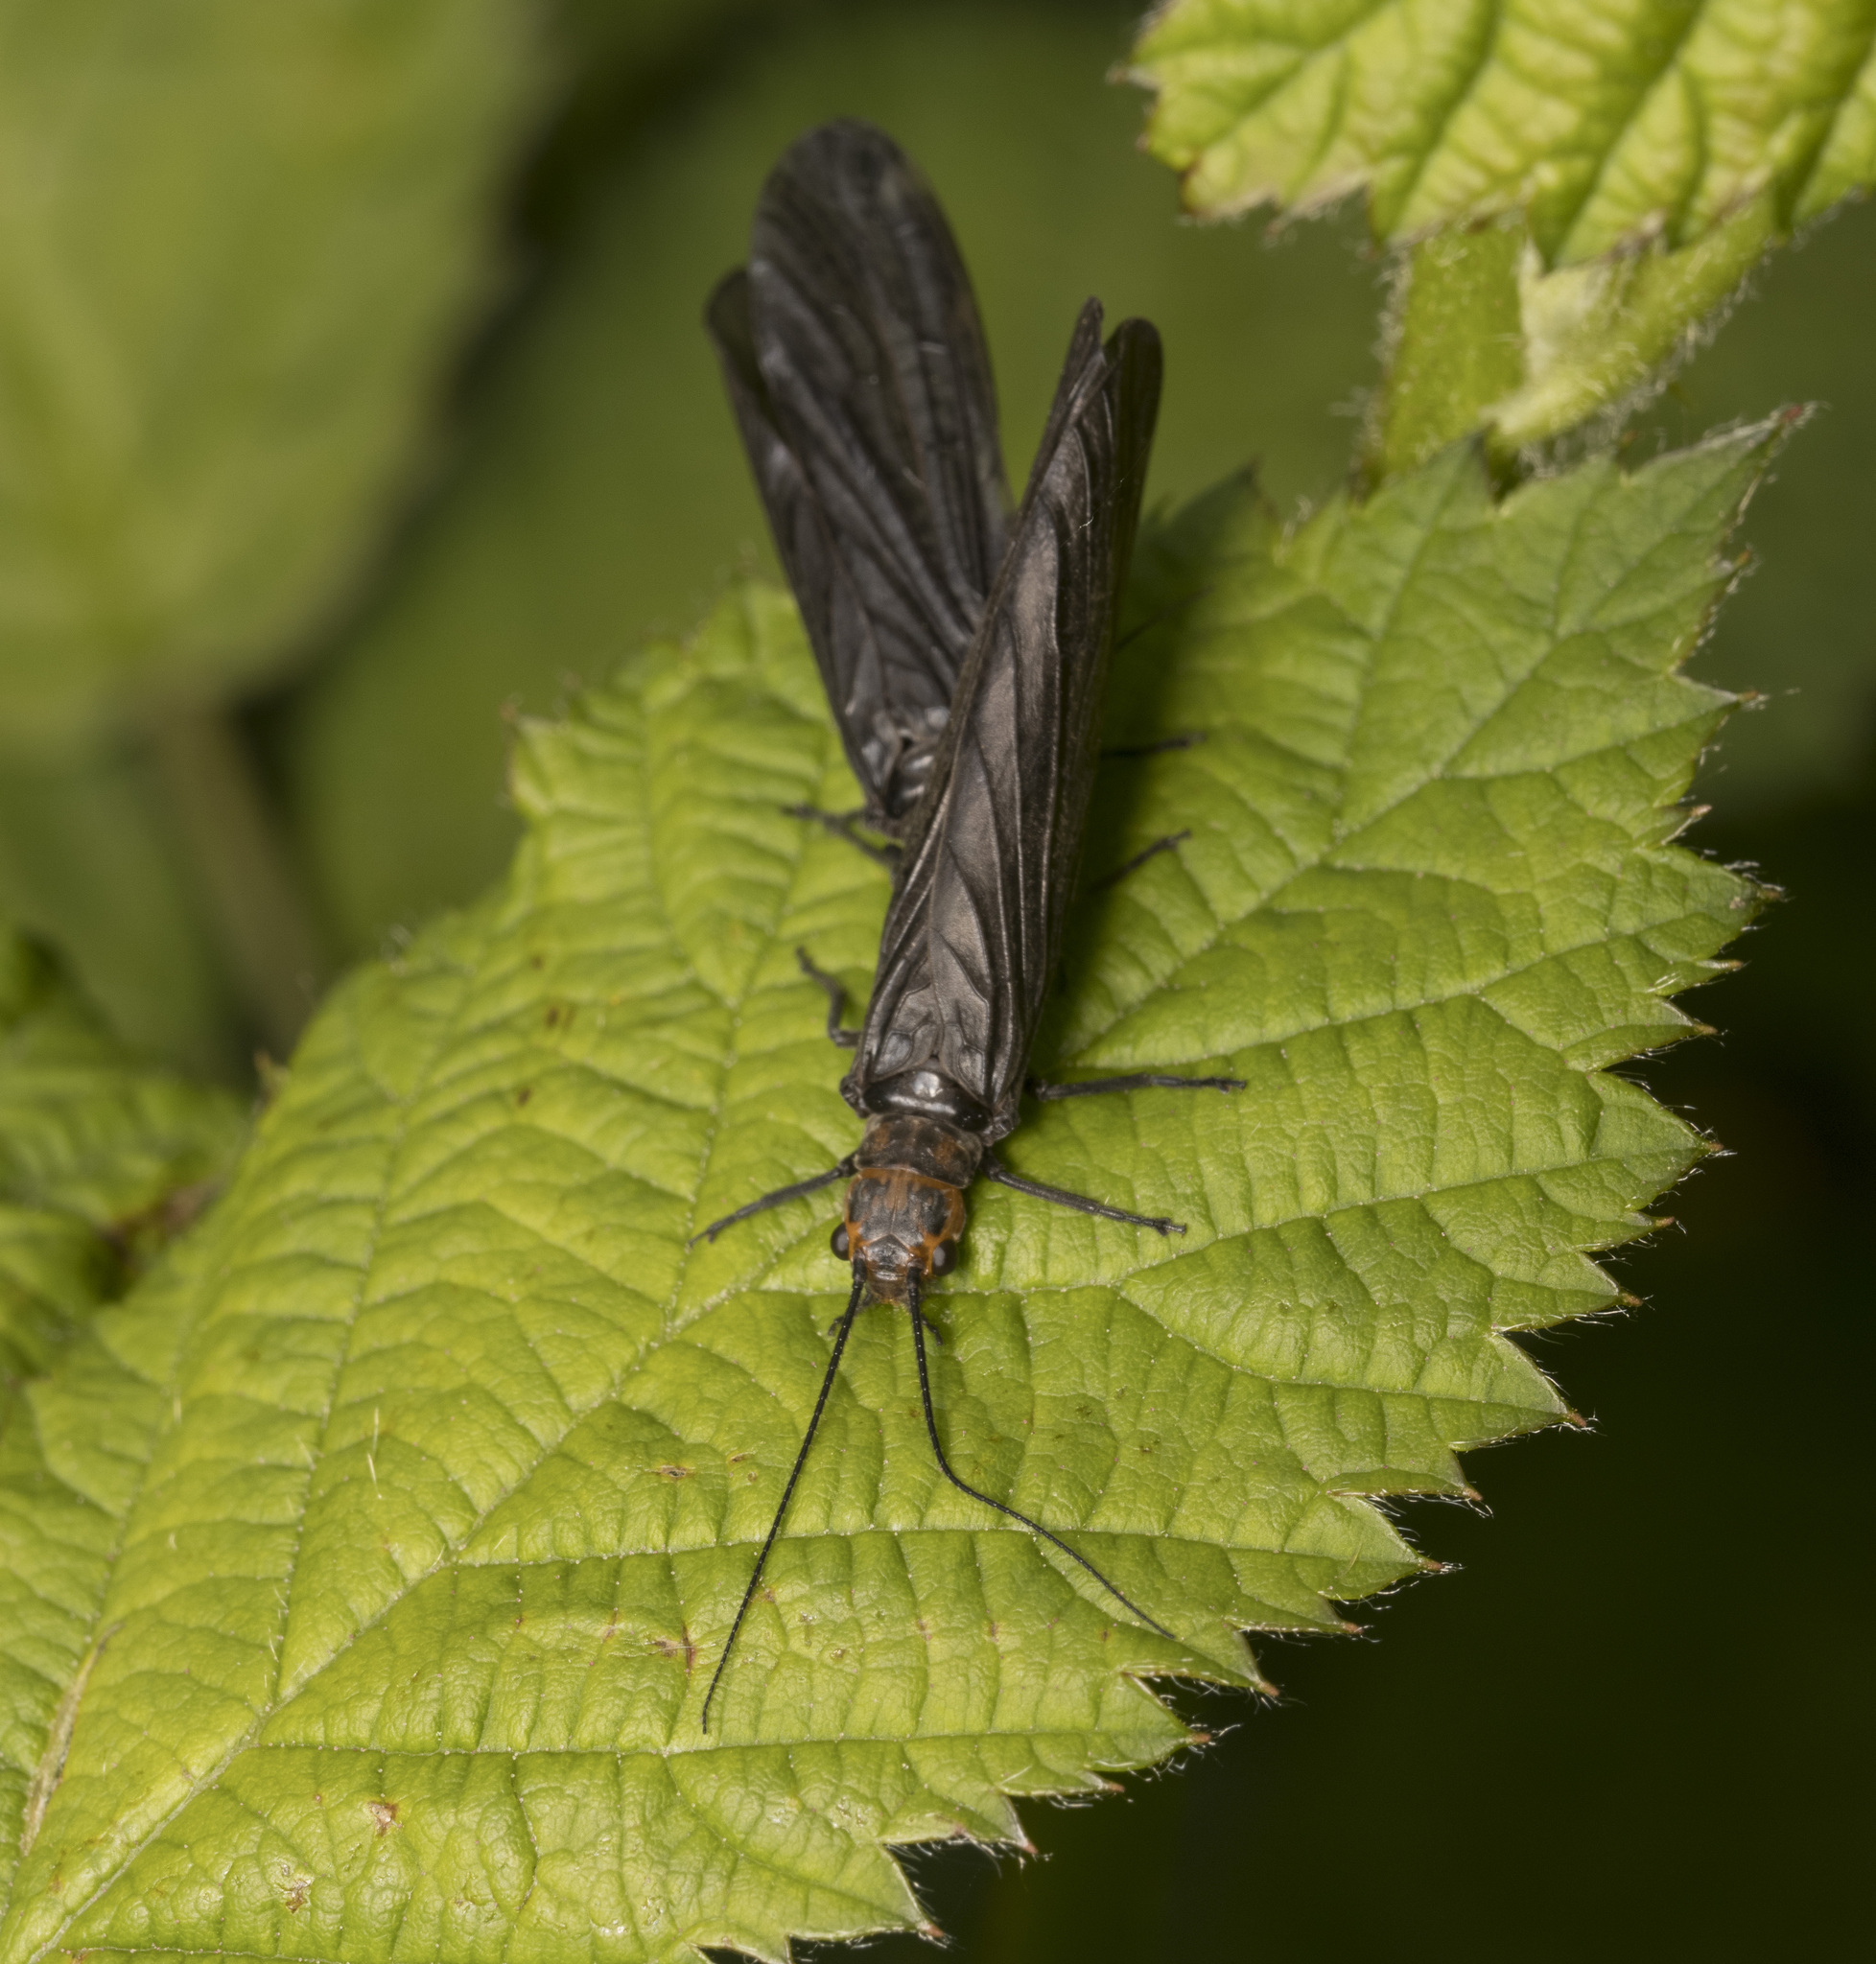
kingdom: Animalia
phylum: Arthropoda
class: Insecta
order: Megaloptera
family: Sialidae
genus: Ilyobius
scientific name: Ilyobius chilensis
